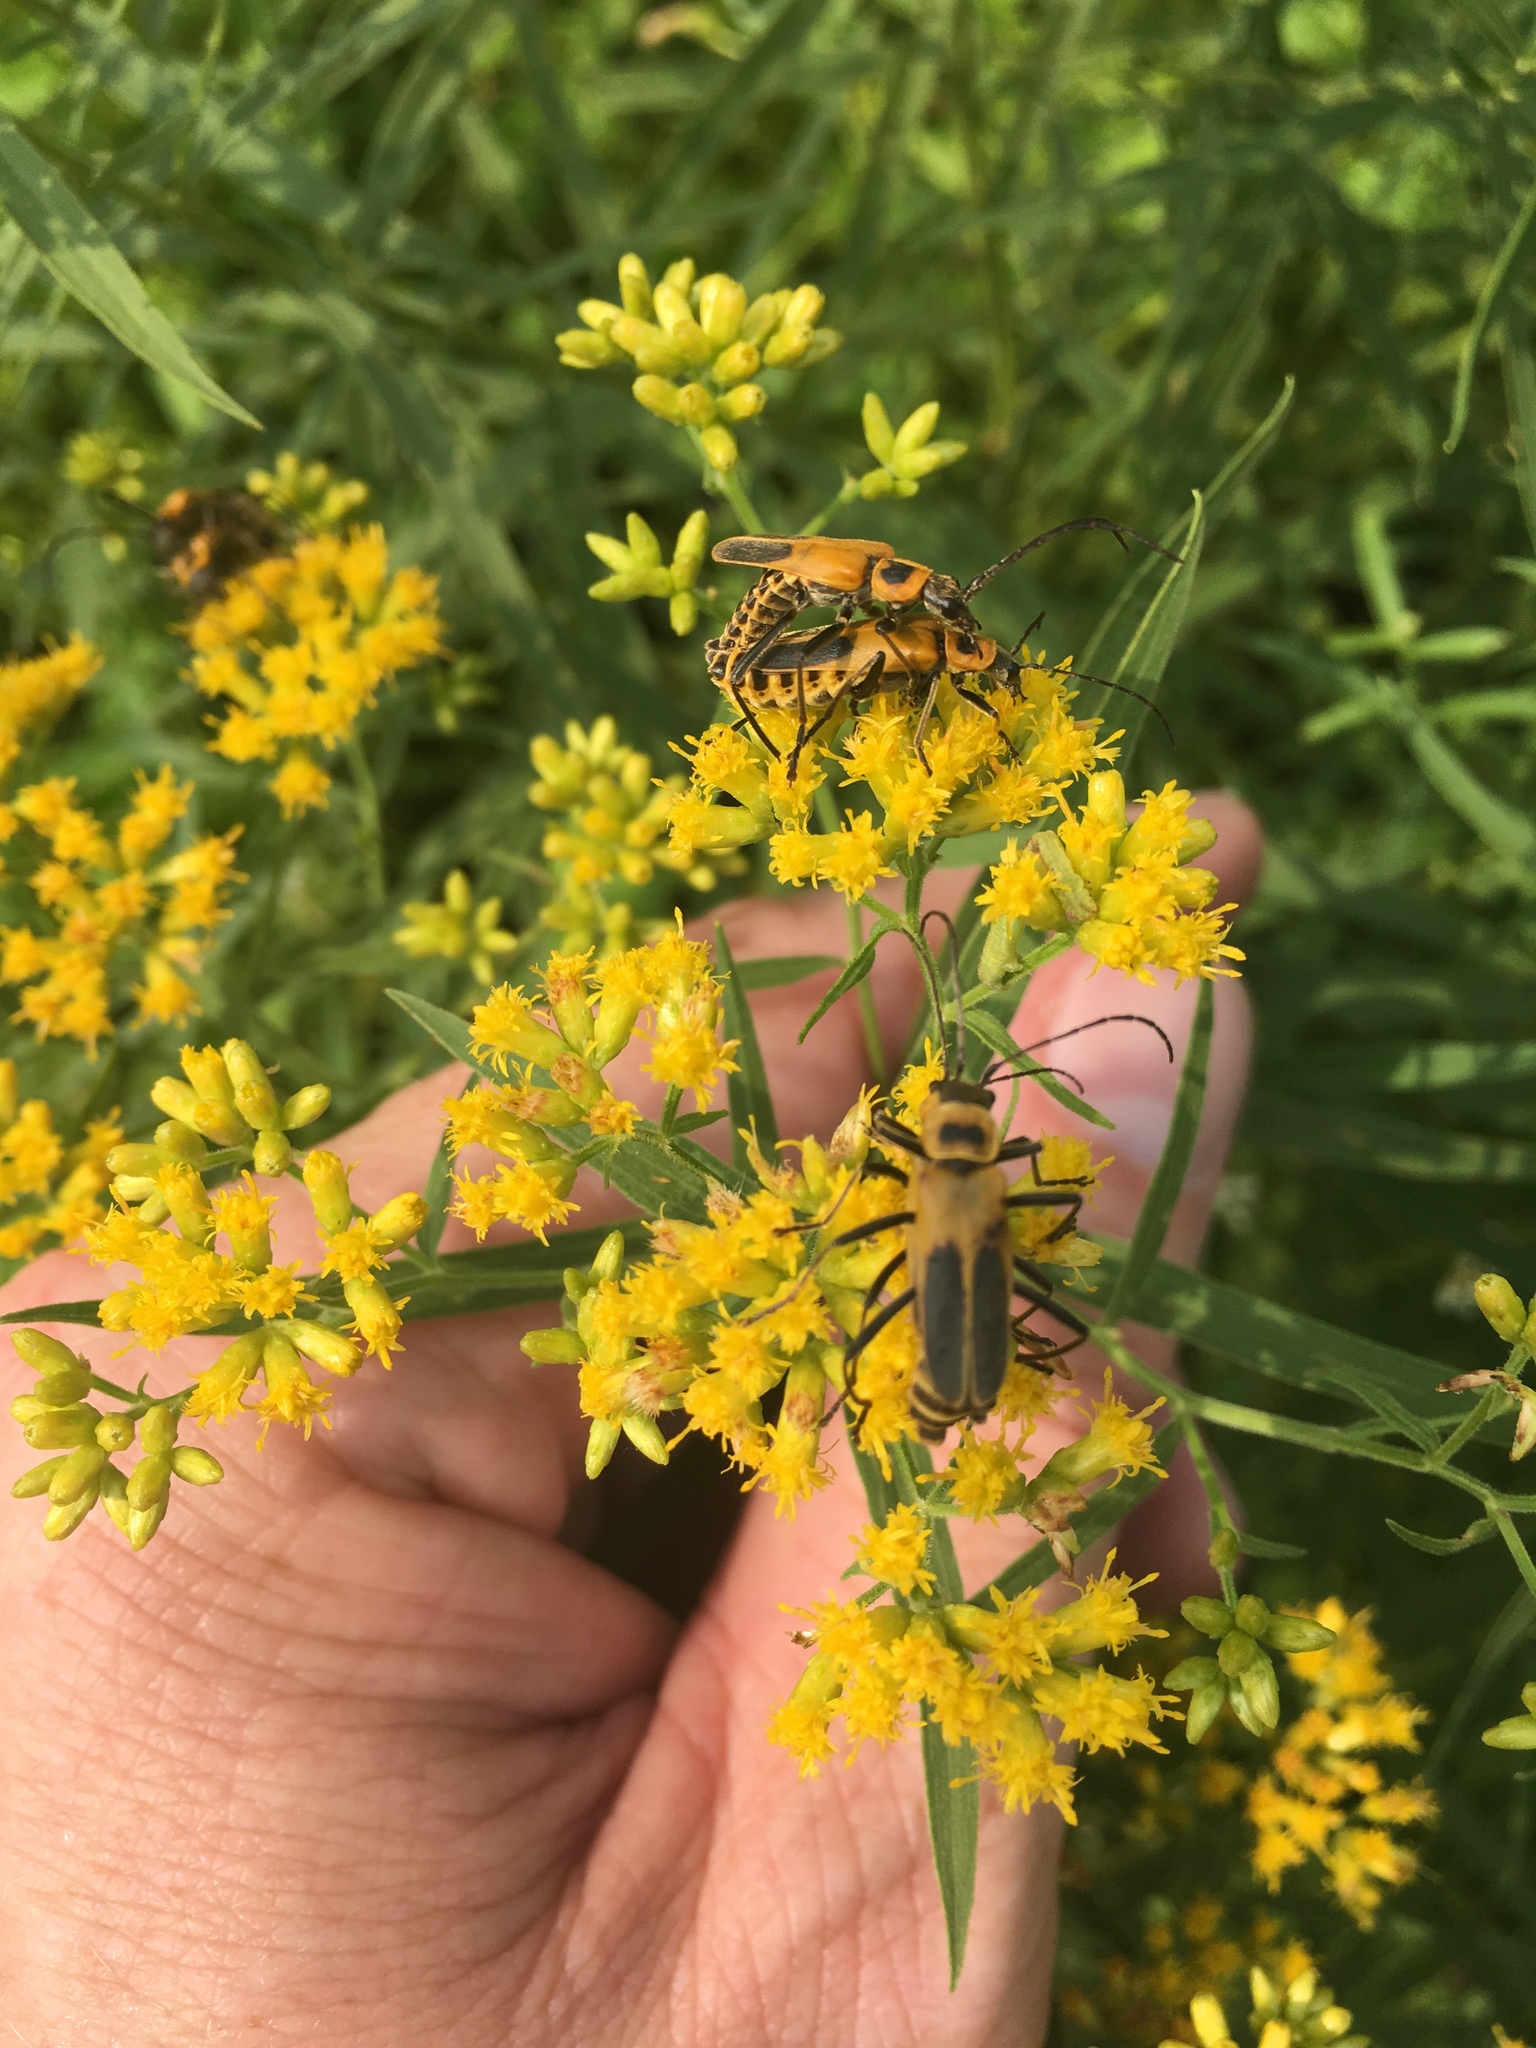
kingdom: Animalia
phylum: Arthropoda
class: Insecta
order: Coleoptera
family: Cantharidae
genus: Chauliognathus
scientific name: Chauliognathus pensylvanicus
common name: Goldenrod soldier beetle
